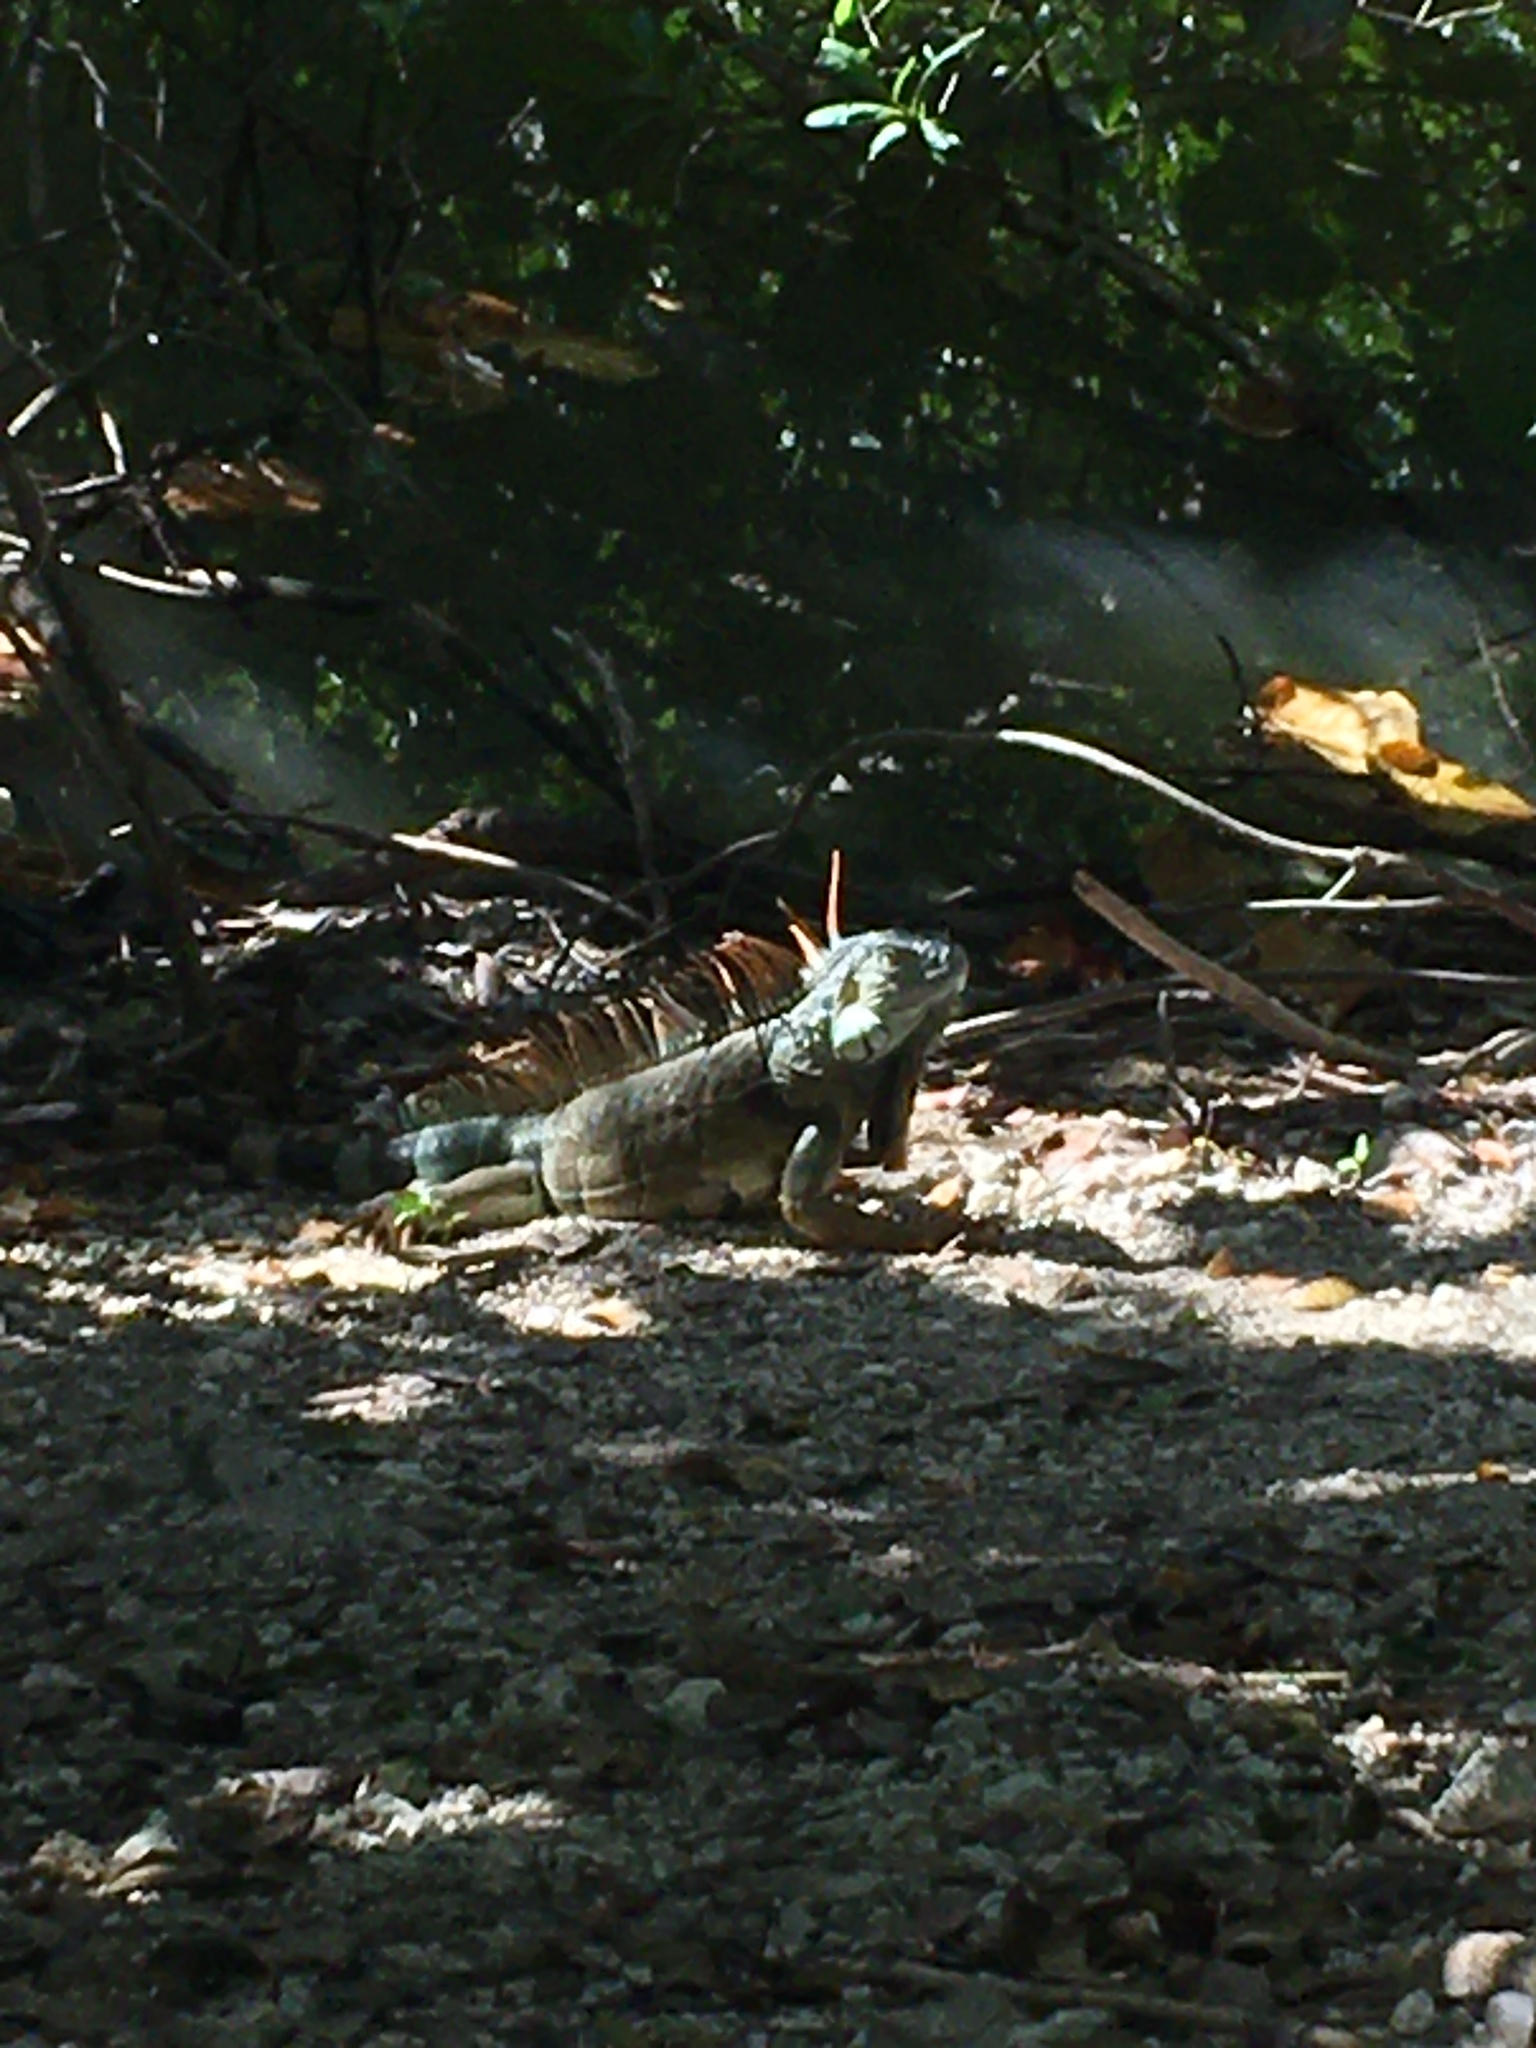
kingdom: Animalia
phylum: Chordata
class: Squamata
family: Iguanidae
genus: Iguana
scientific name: Iguana iguana
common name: Green iguana
